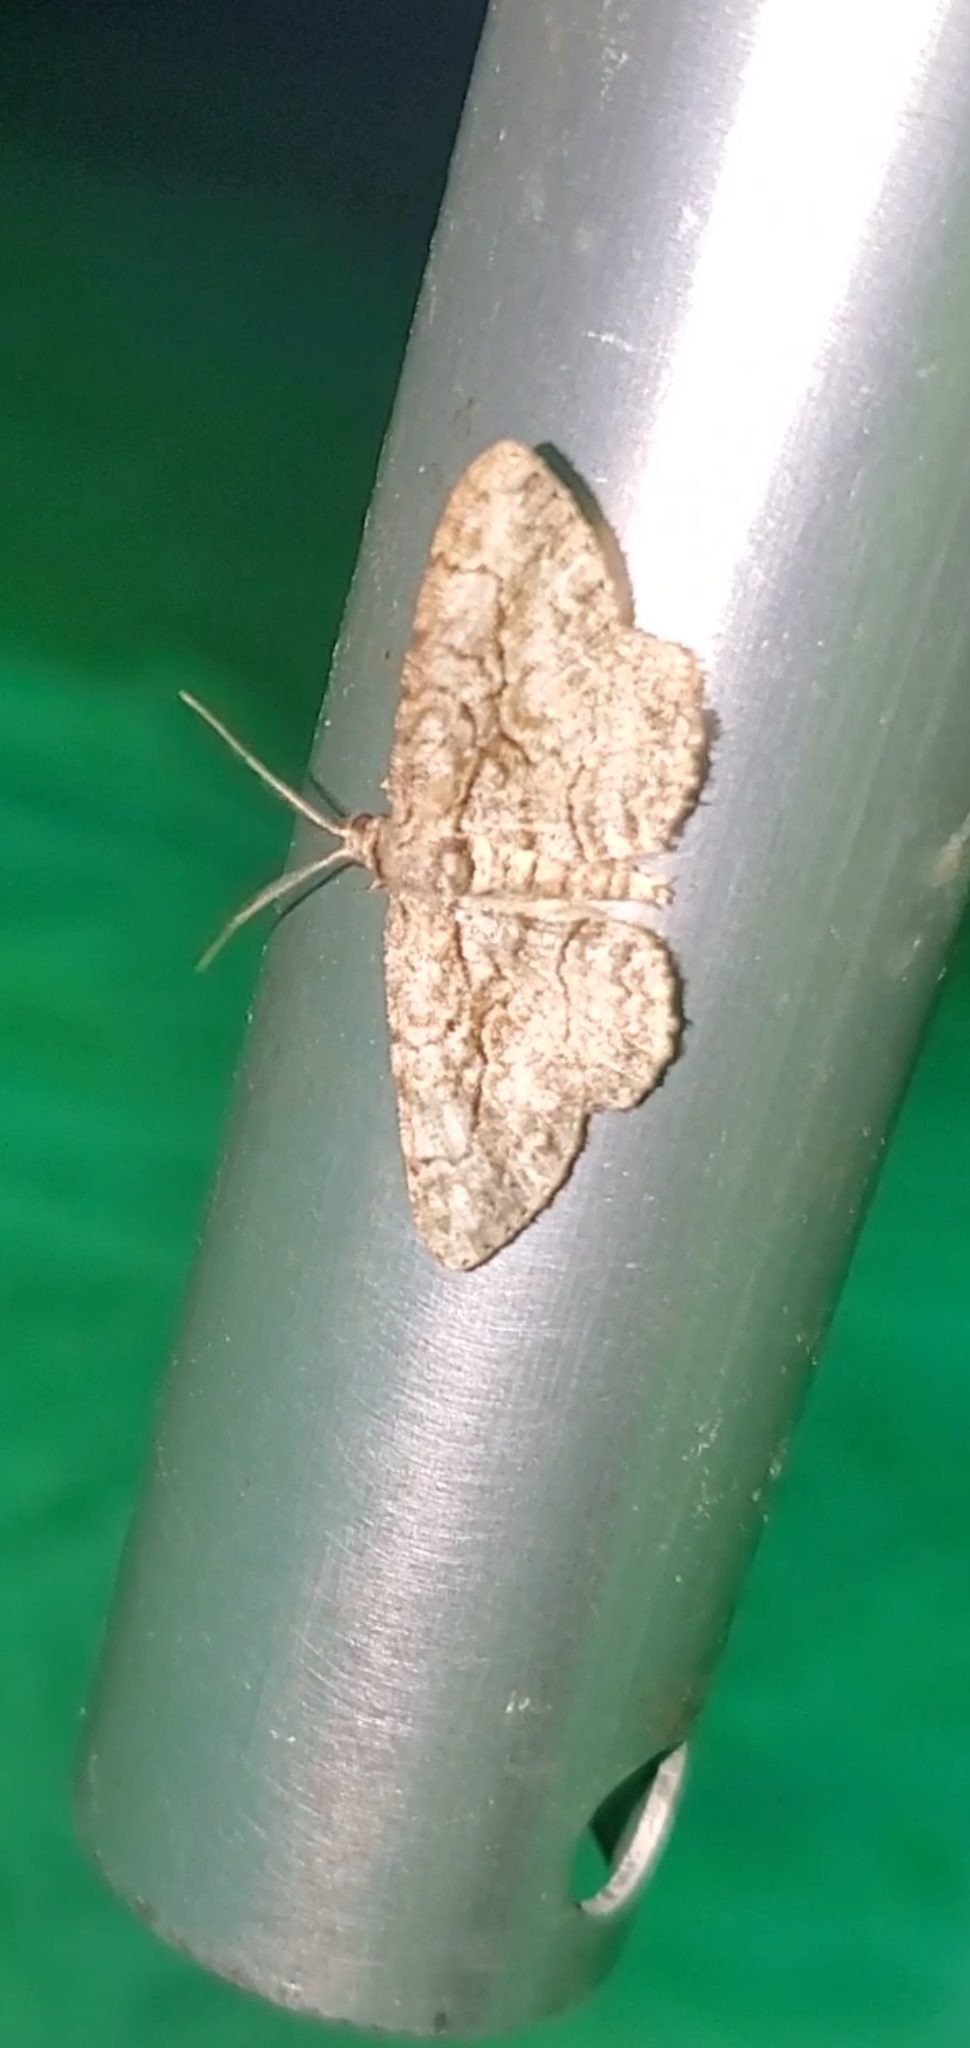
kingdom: Animalia
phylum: Arthropoda
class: Insecta
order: Lepidoptera
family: Geometridae
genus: Anavitrinella
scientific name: Anavitrinella pampinaria
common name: Common gray
